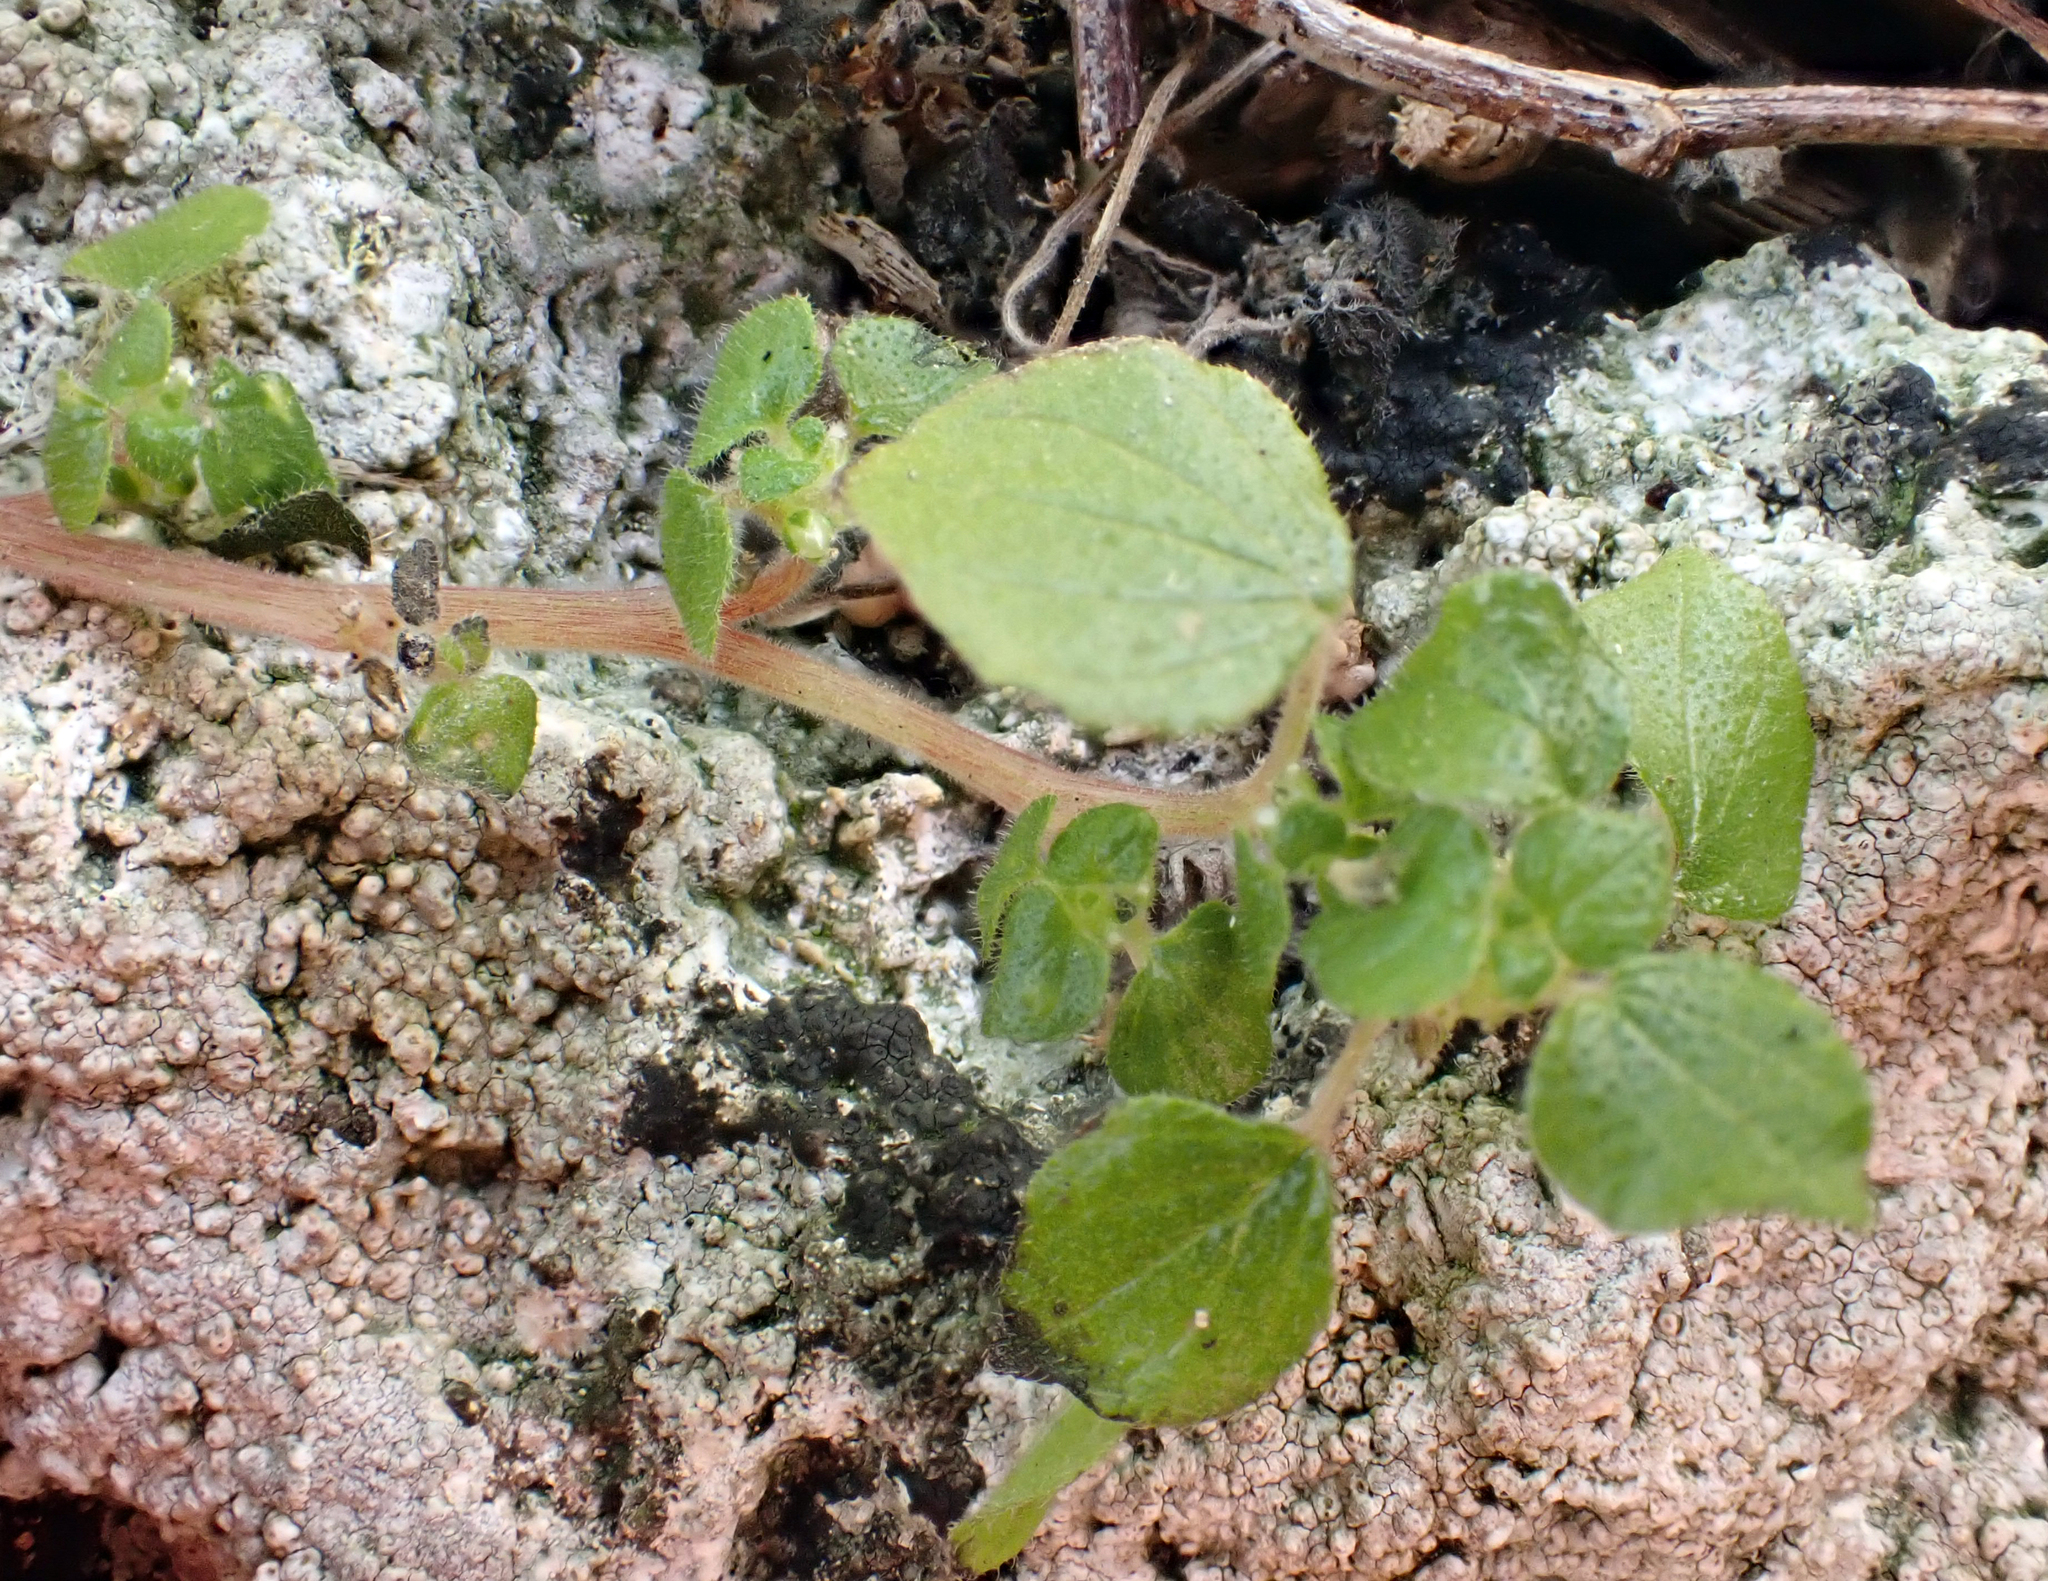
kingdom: Plantae
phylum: Tracheophyta
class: Magnoliopsida
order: Rosales
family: Urticaceae
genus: Parietaria
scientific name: Parietaria debilis
